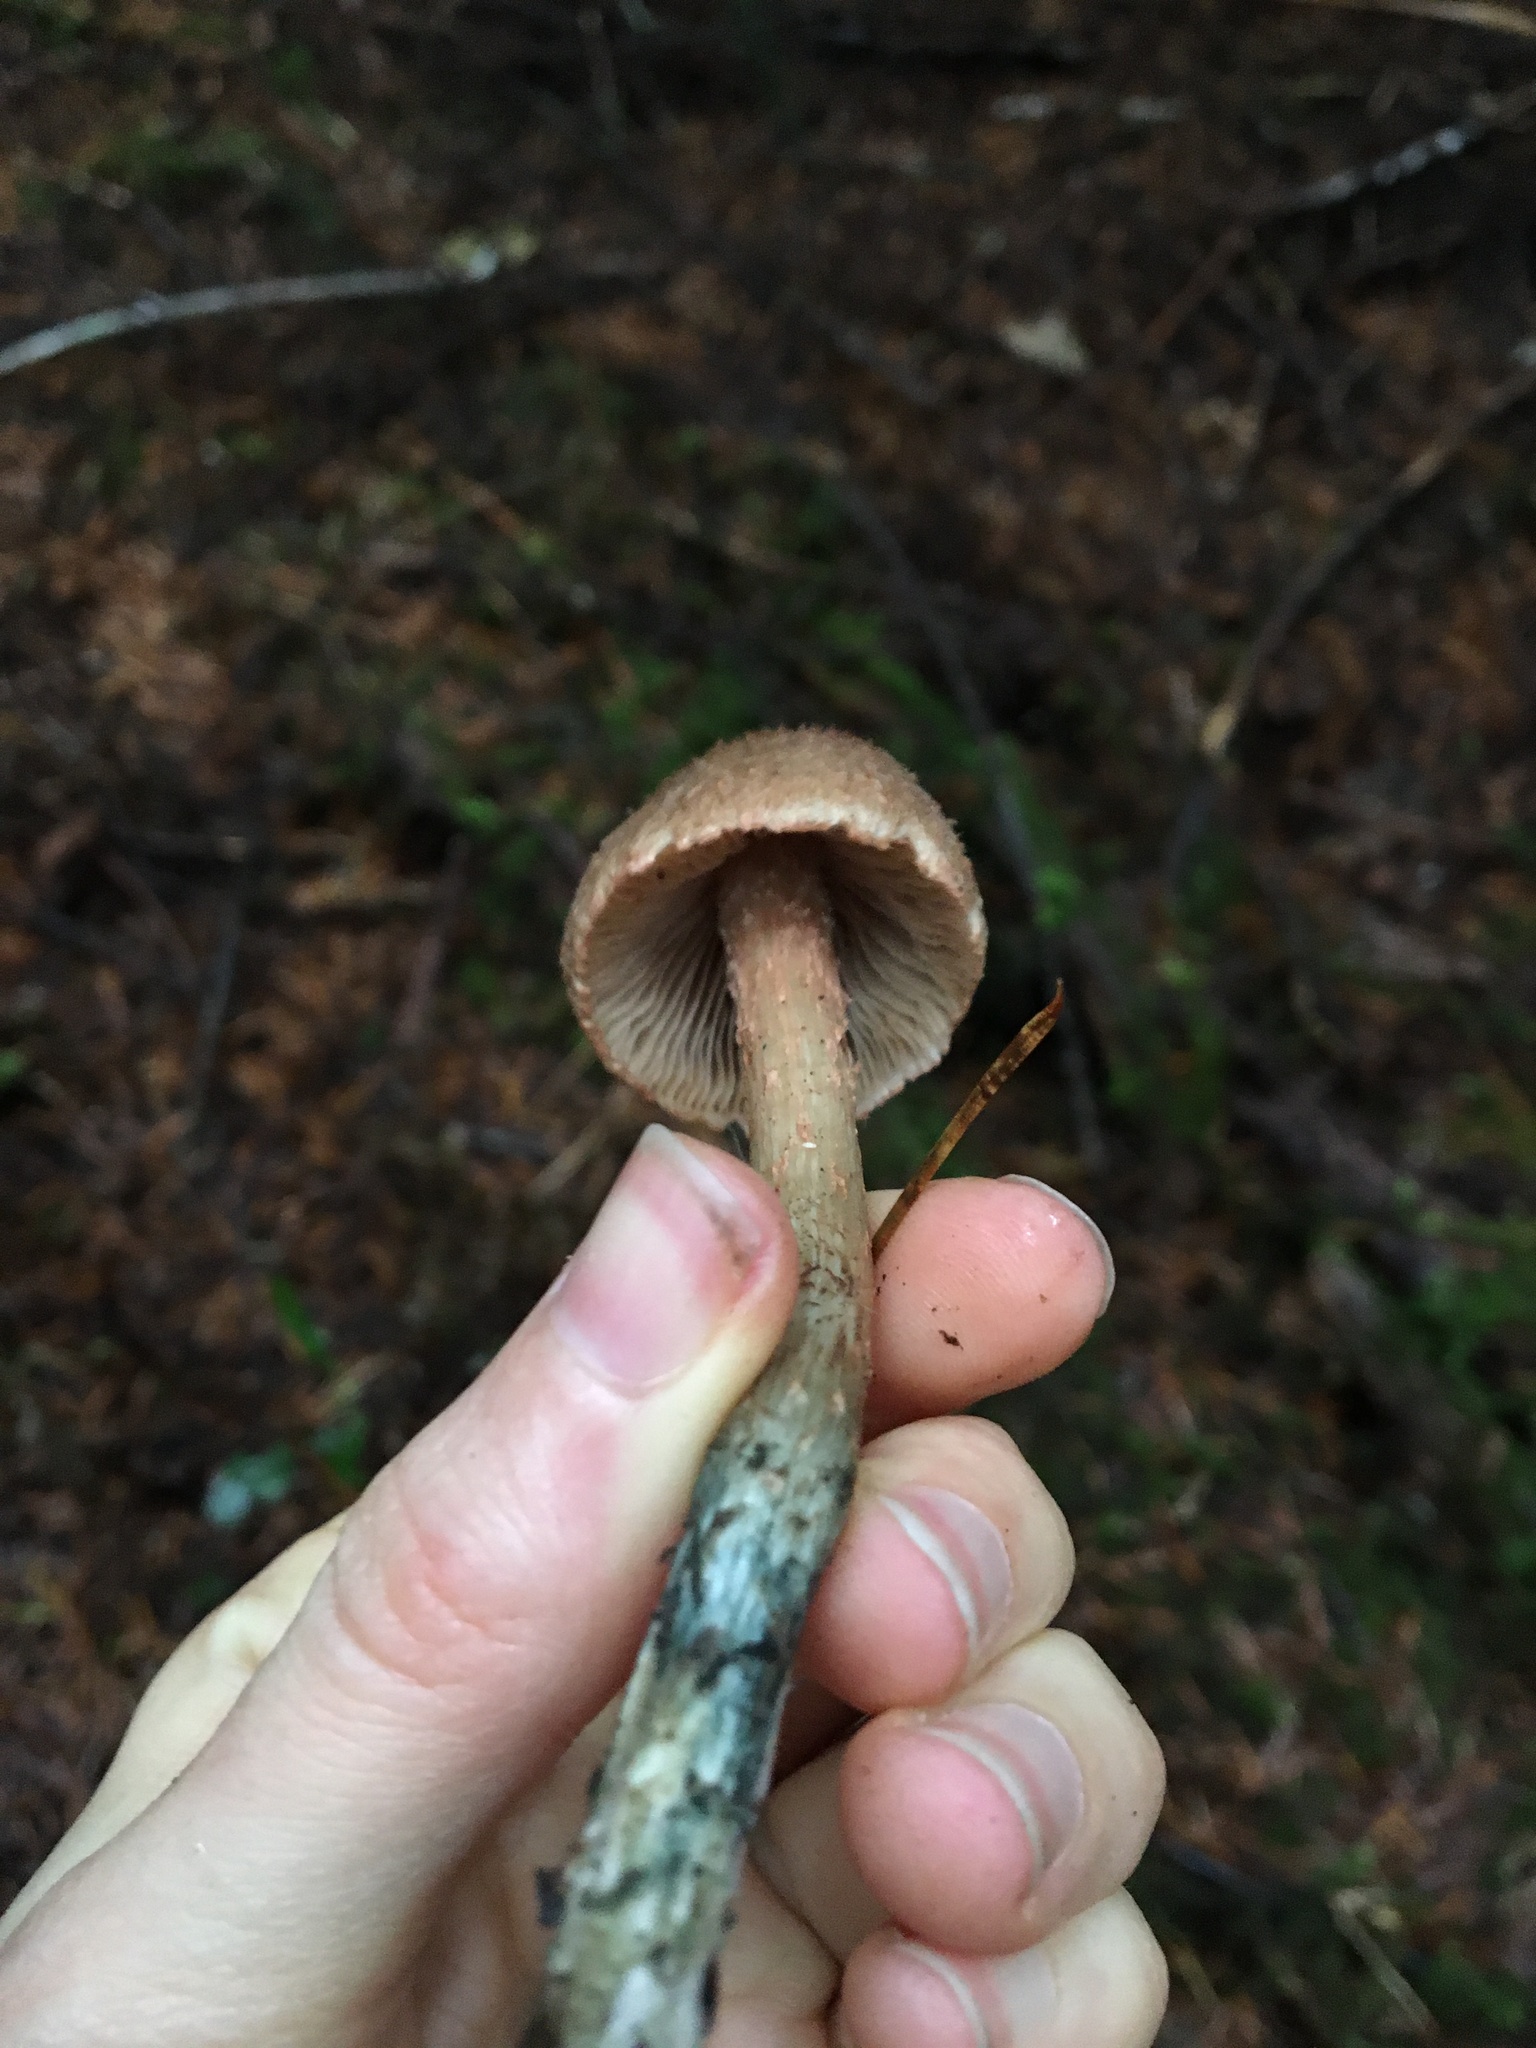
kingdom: Fungi
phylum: Basidiomycota
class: Agaricomycetes
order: Agaricales
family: Inocybaceae
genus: Inosperma
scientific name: Inosperma maximum
